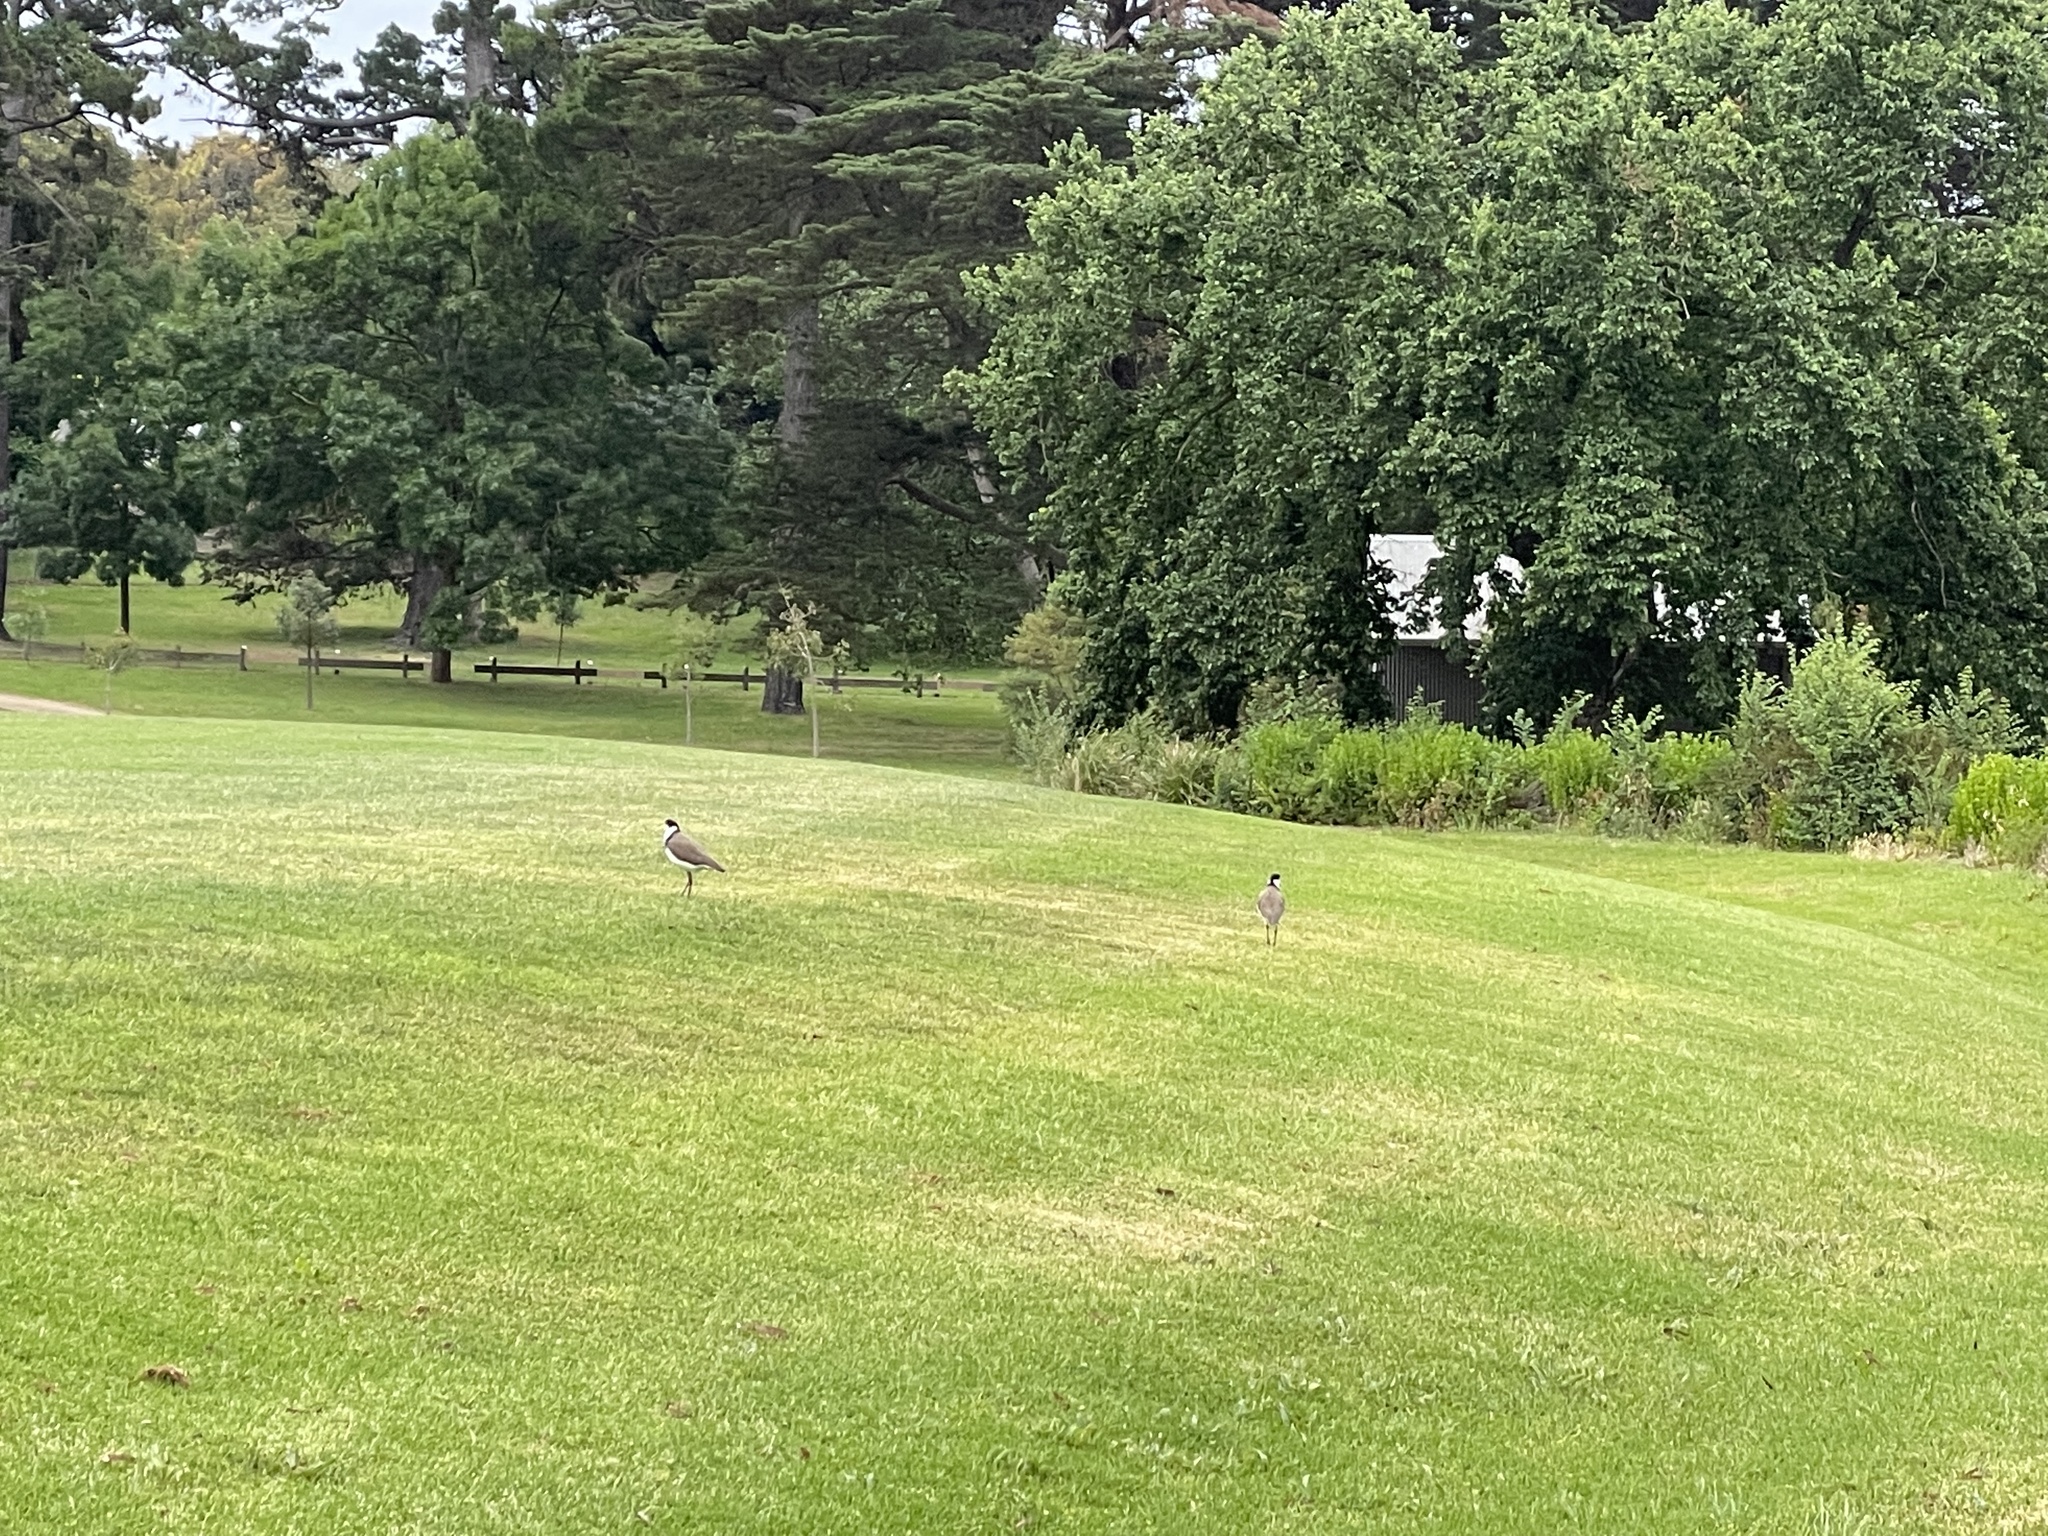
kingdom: Animalia
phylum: Chordata
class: Aves
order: Charadriiformes
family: Charadriidae
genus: Vanellus
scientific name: Vanellus miles
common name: Masked lapwing
